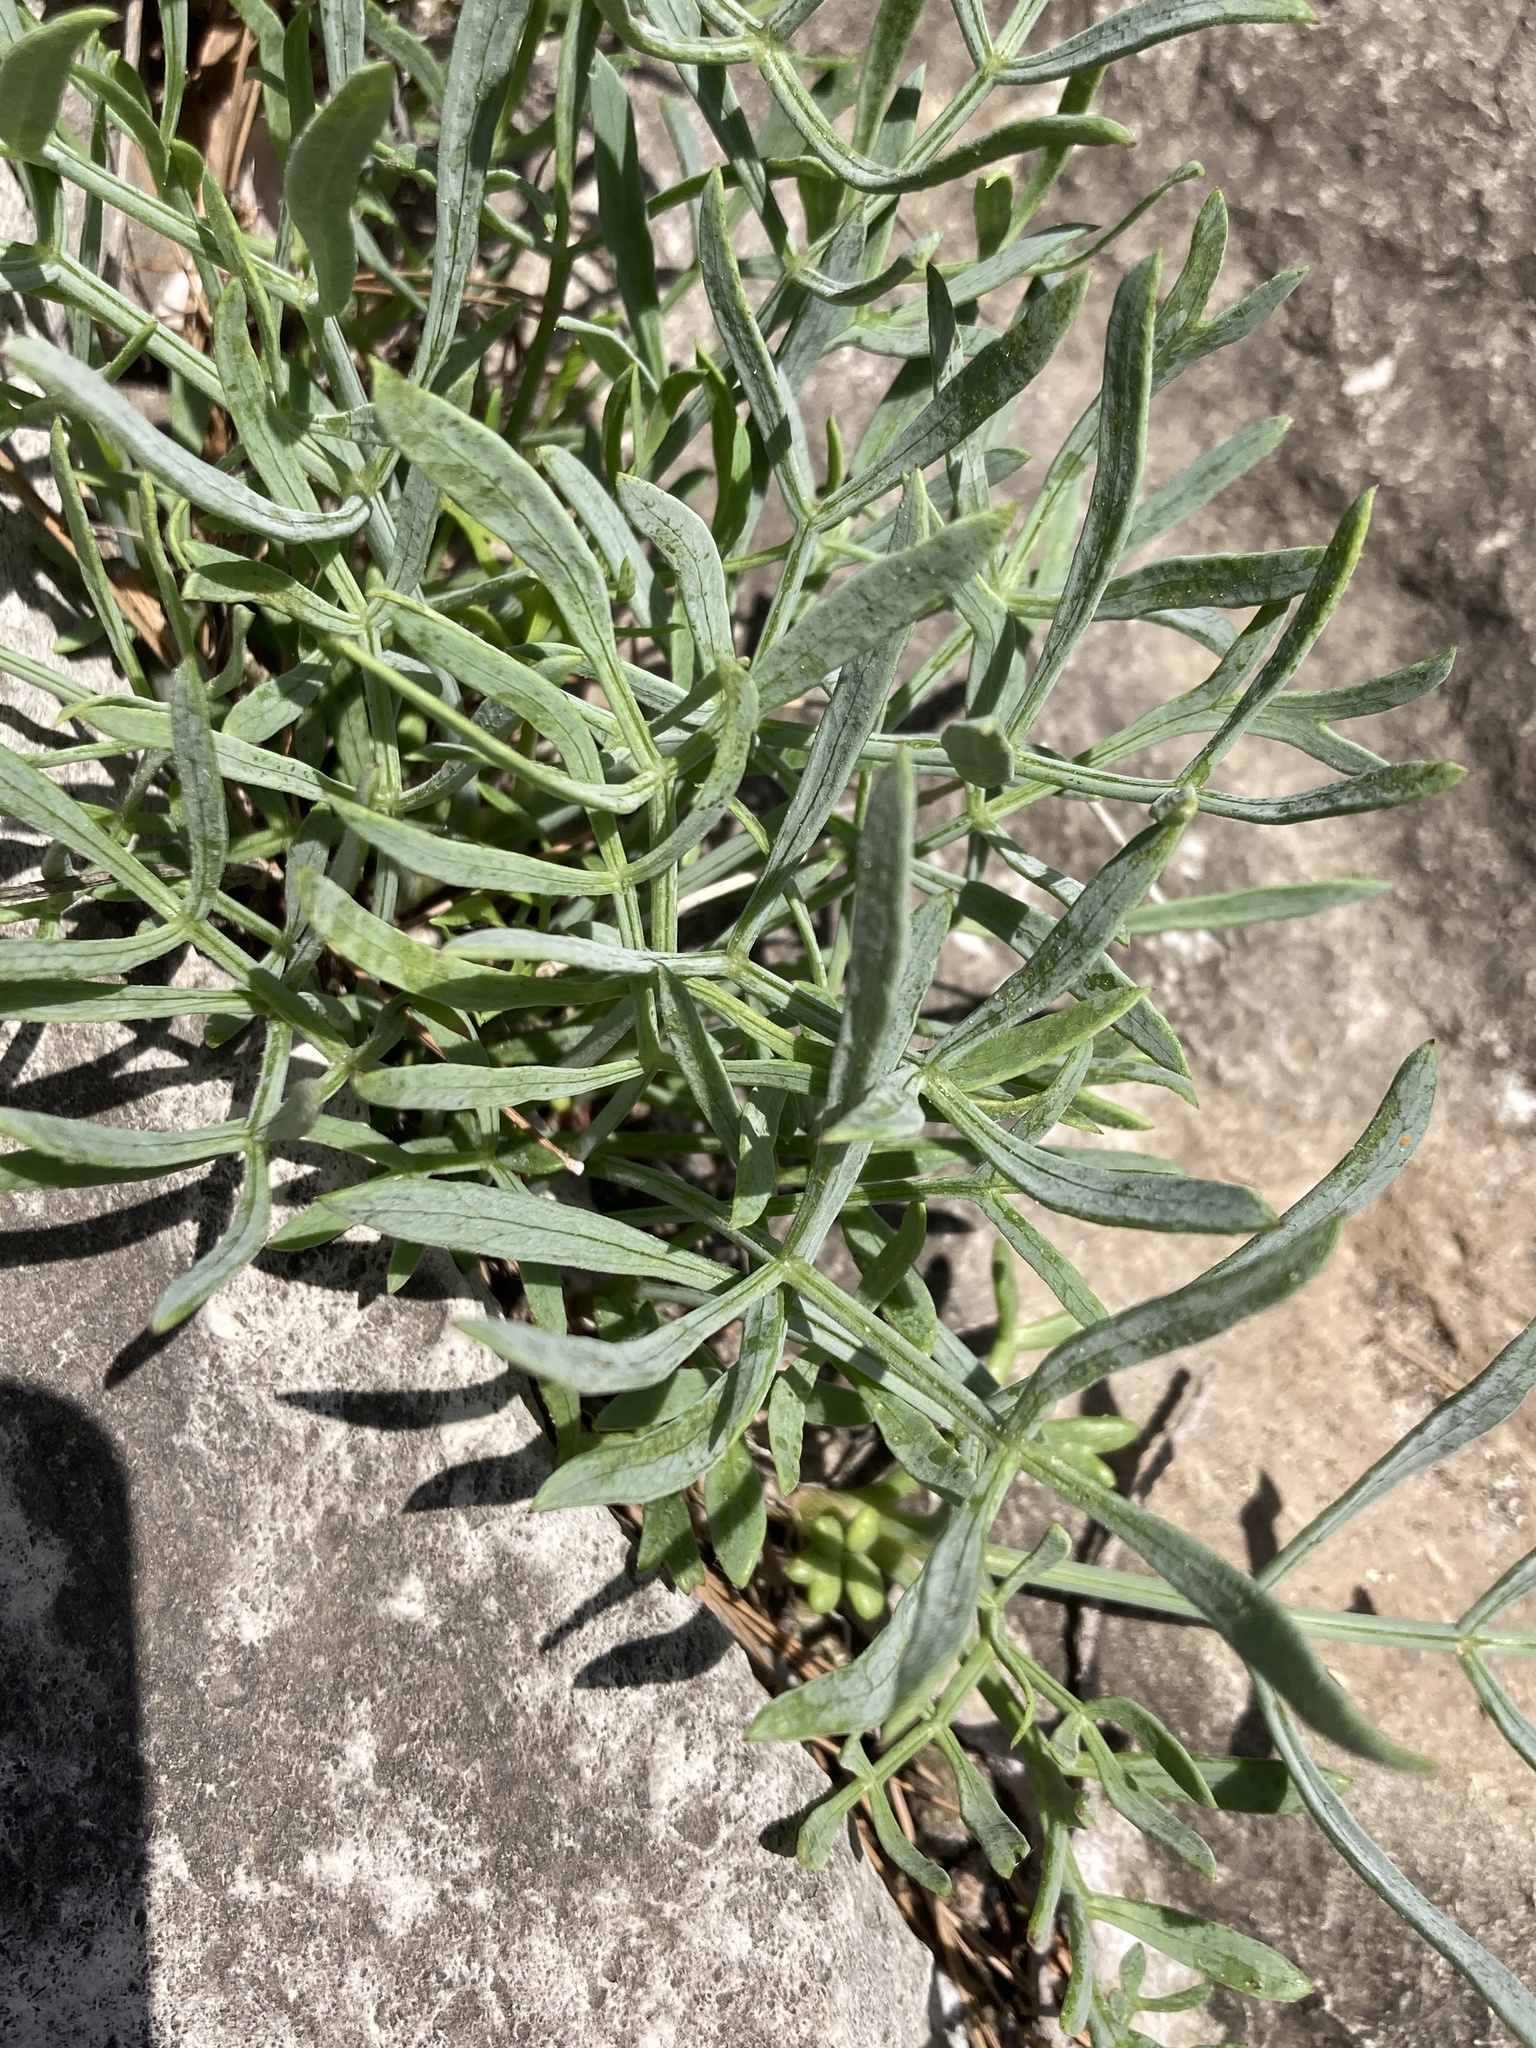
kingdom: Plantae
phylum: Tracheophyta
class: Magnoliopsida
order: Apiales
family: Apiaceae
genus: Crithmum
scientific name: Crithmum maritimum
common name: Rock samphire
